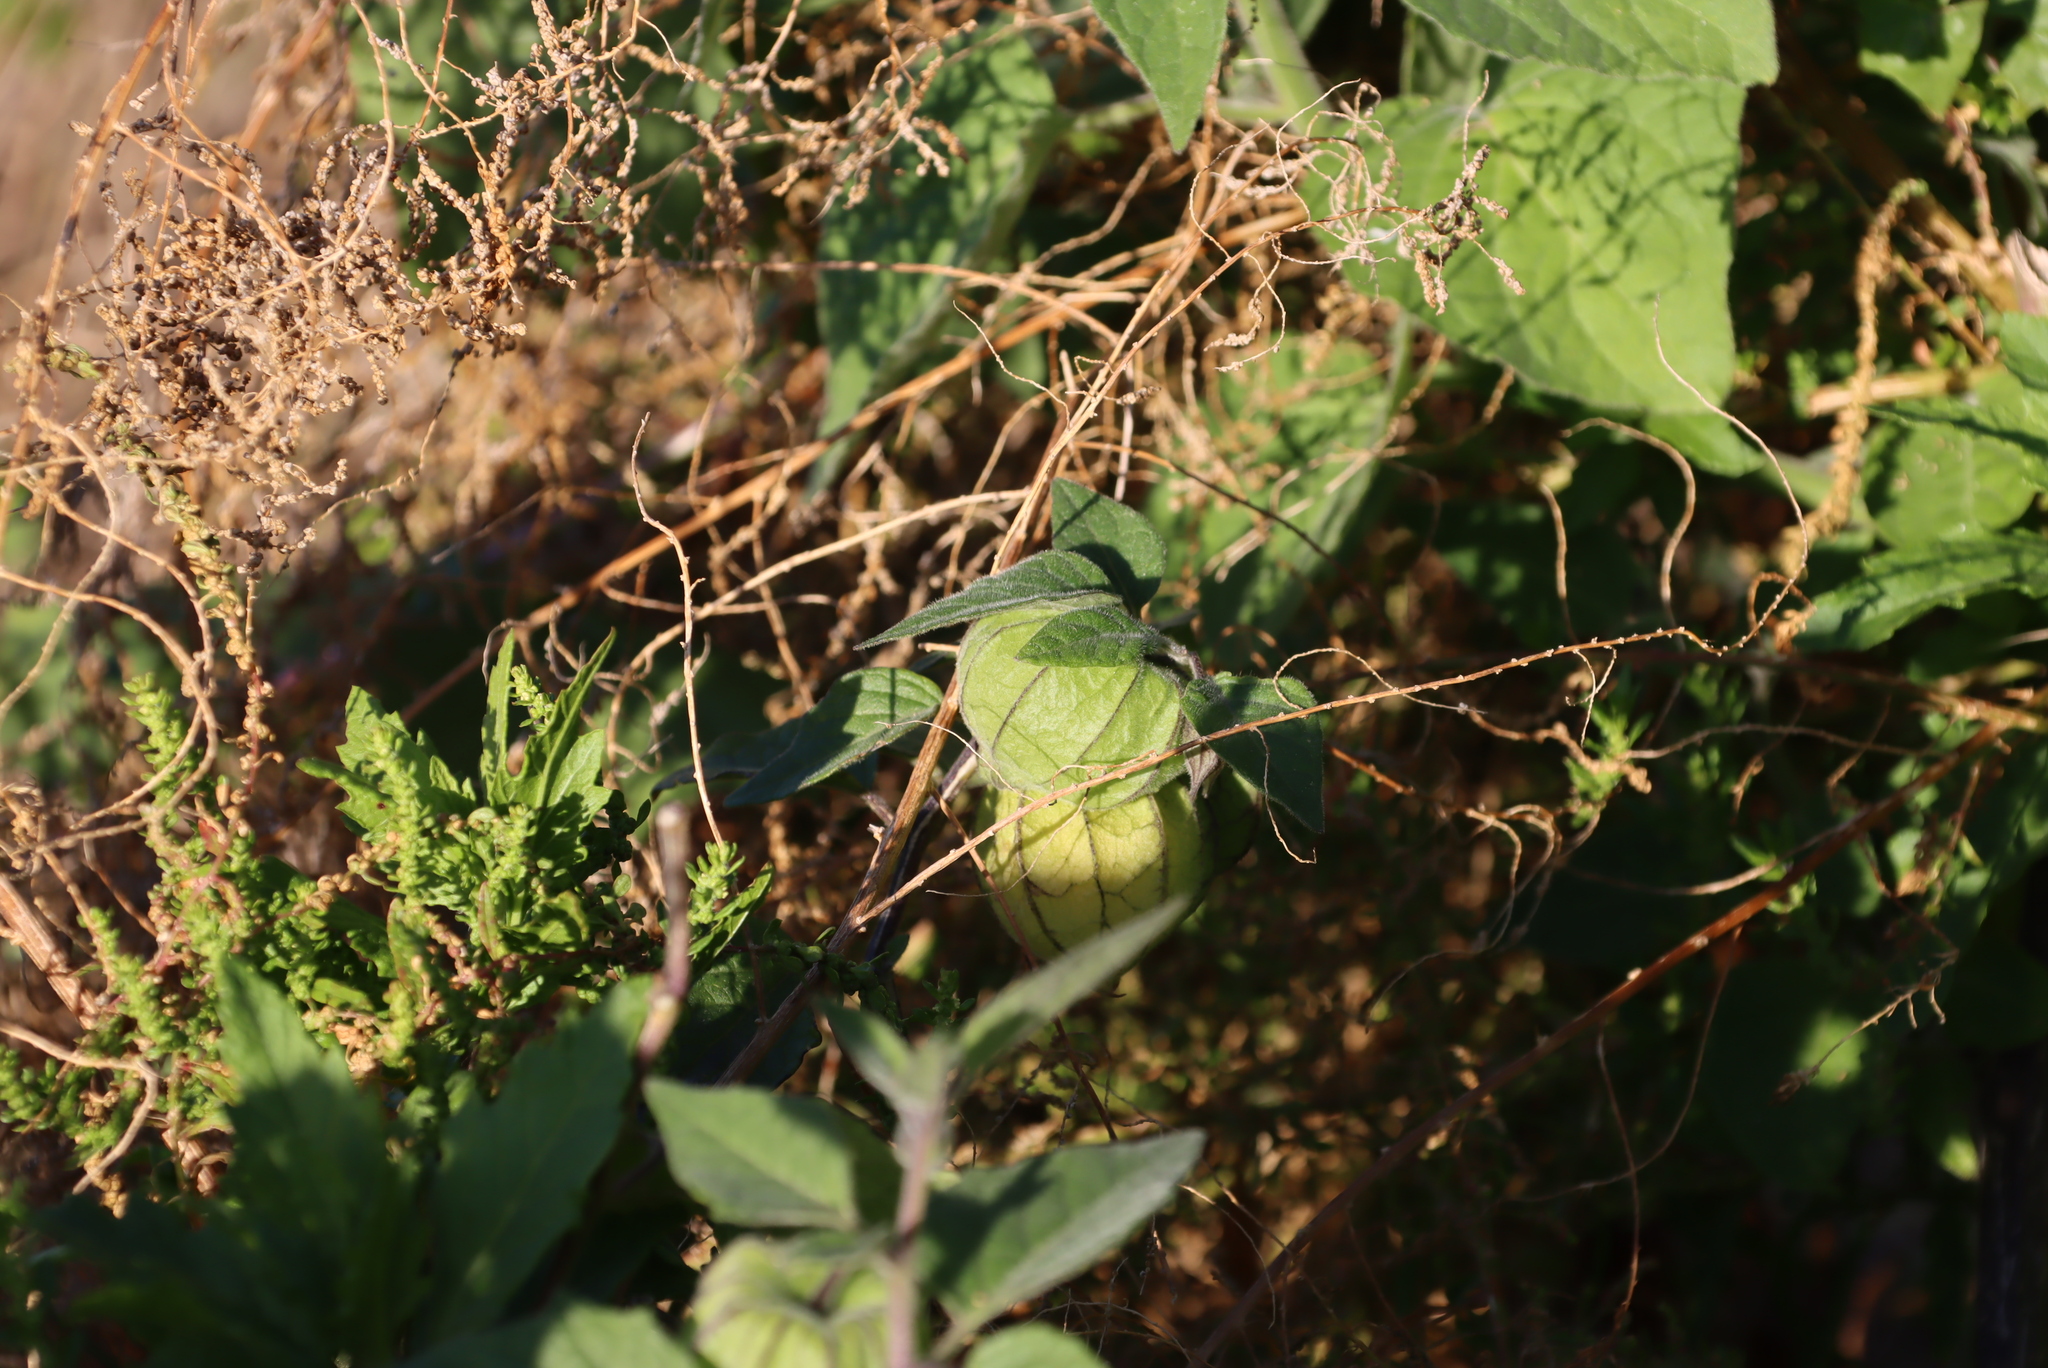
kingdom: Plantae
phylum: Tracheophyta
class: Magnoliopsida
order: Solanales
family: Solanaceae
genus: Physalis
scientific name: Physalis peruviana
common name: Cape-gooseberry
